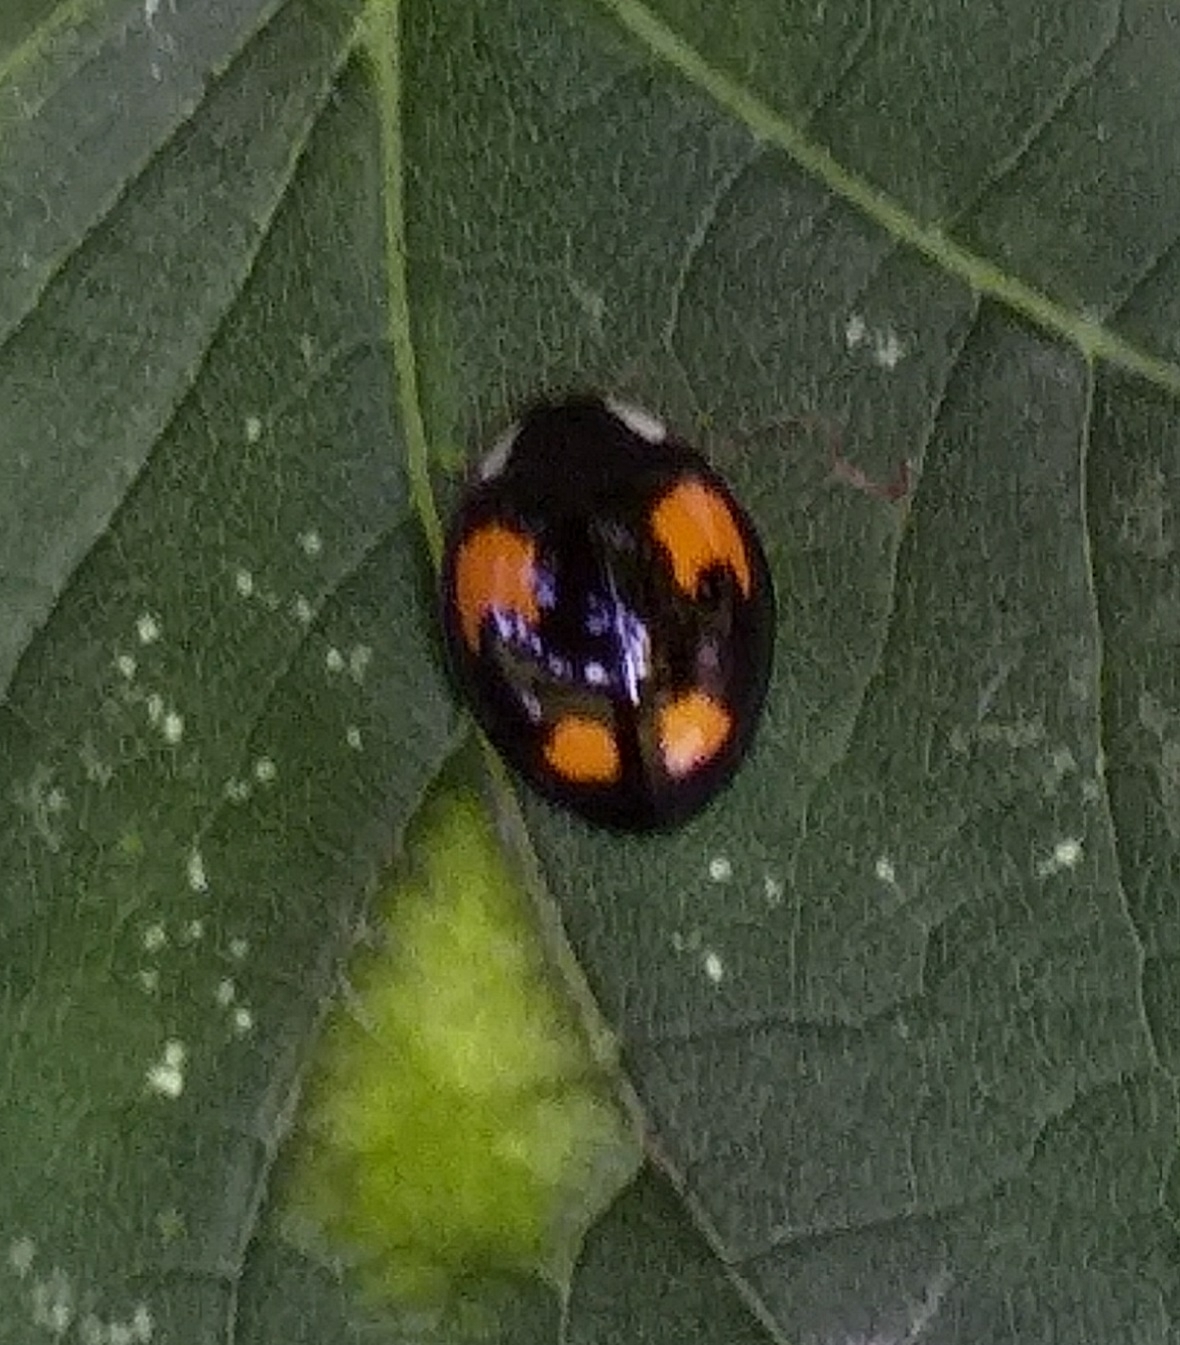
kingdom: Animalia
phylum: Arthropoda
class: Insecta
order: Coleoptera
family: Coccinellidae
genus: Harmonia
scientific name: Harmonia axyridis
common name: Harlequin ladybird
